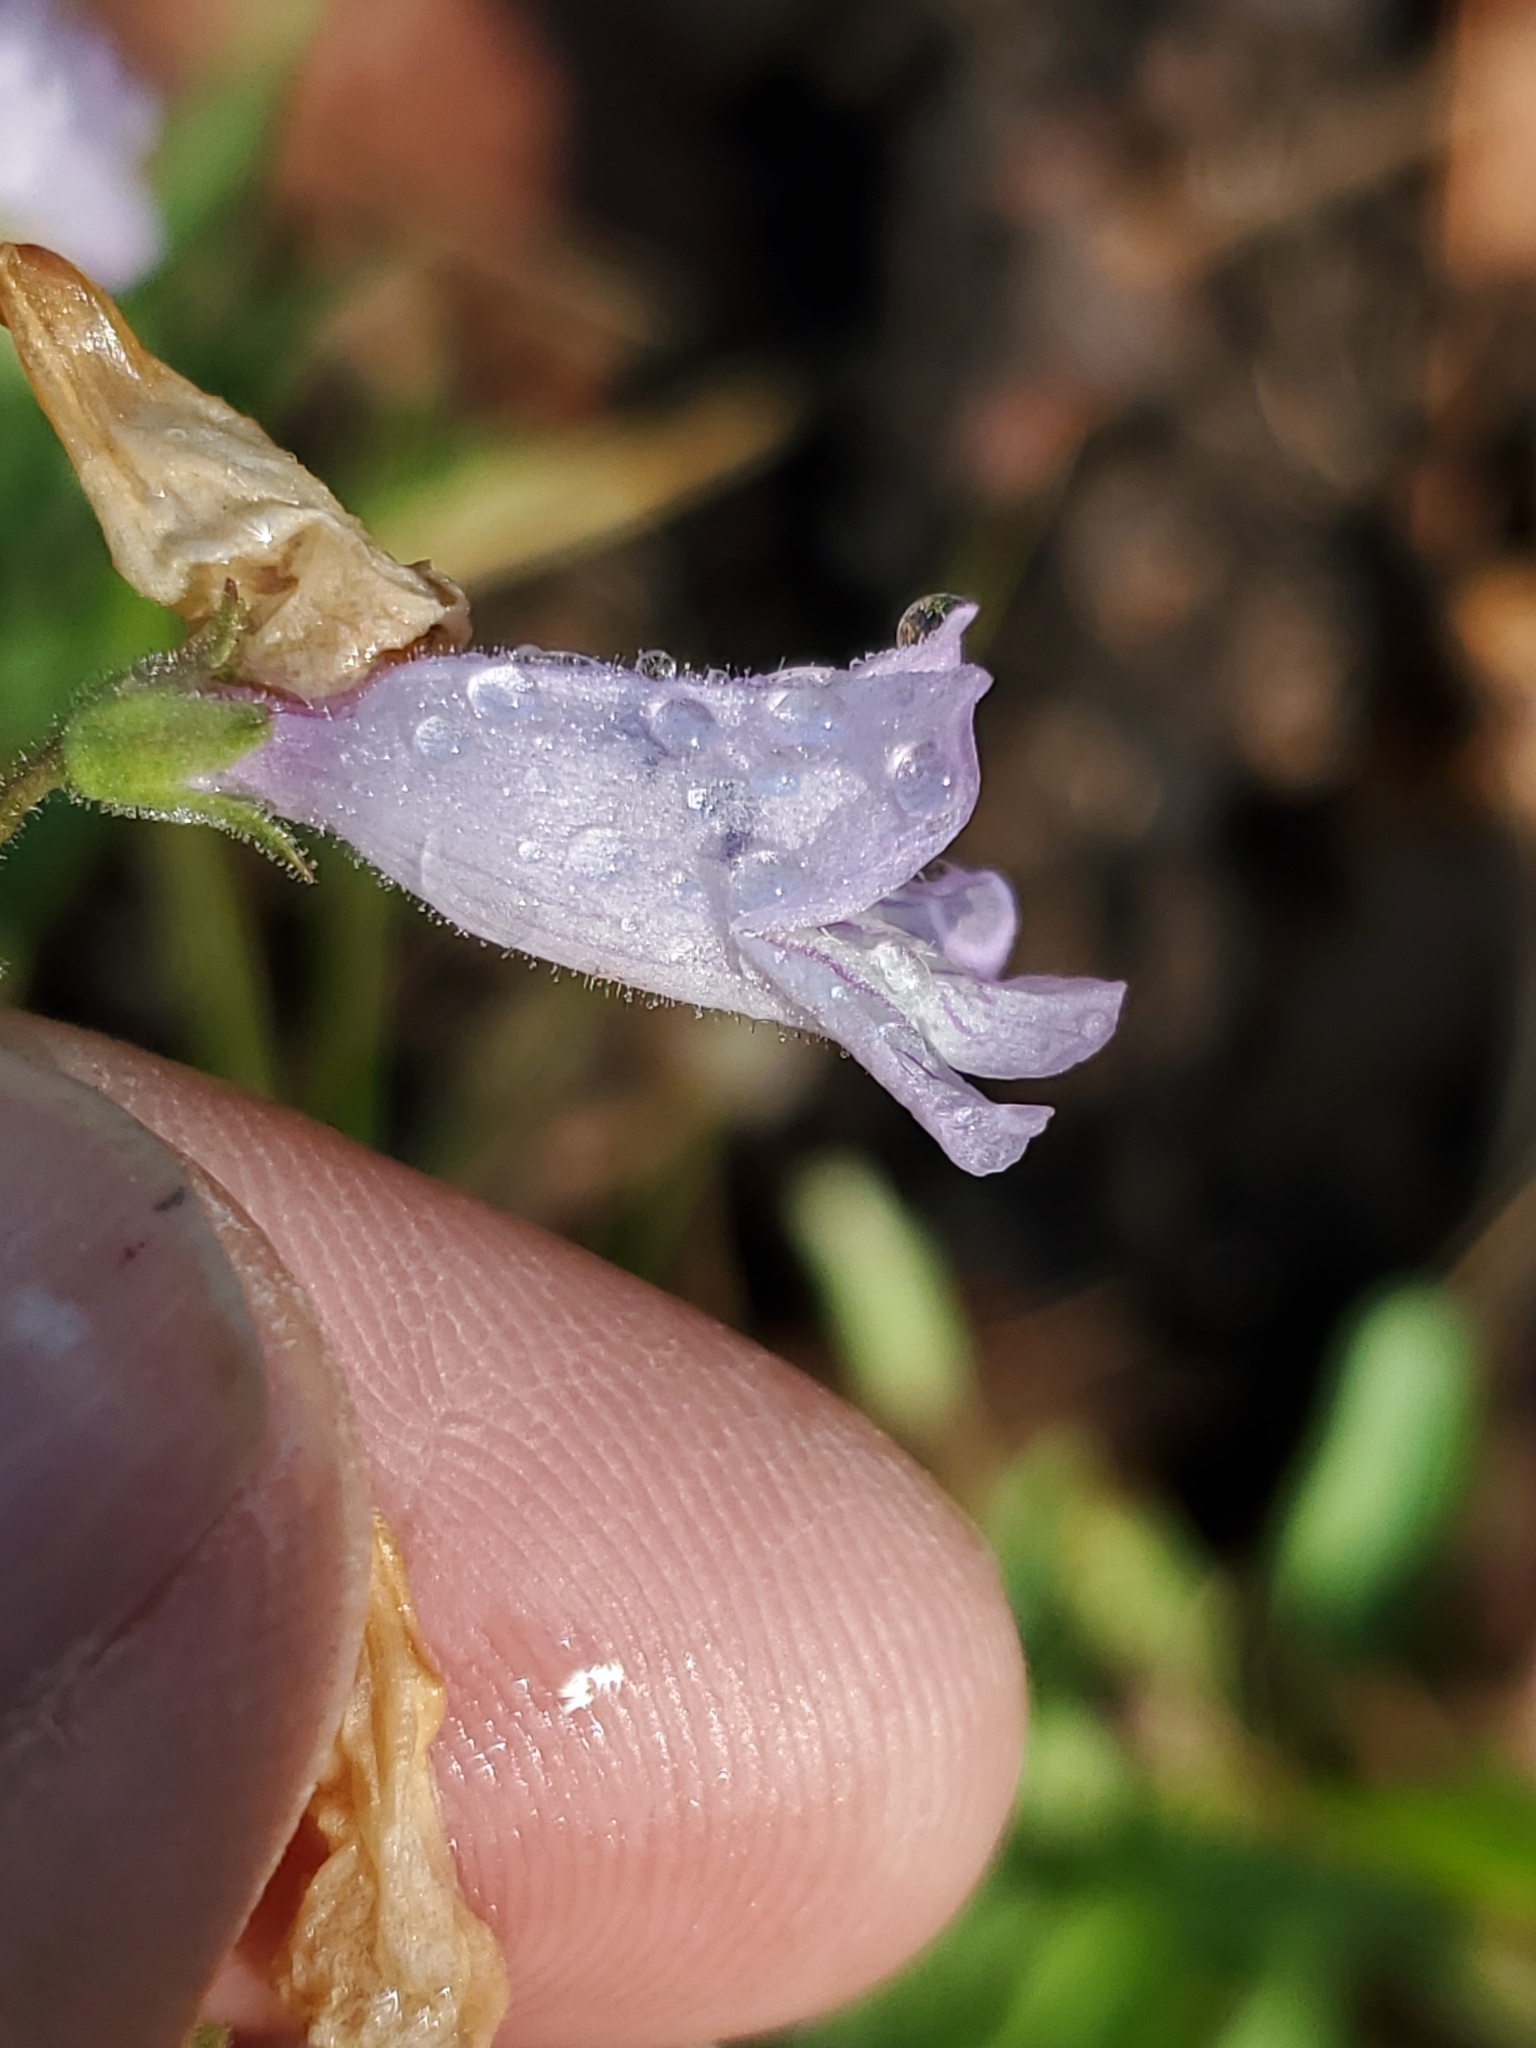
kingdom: Plantae
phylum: Tracheophyta
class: Magnoliopsida
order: Lamiales
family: Plantaginaceae
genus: Penstemon
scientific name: Penstemon oliganthus
